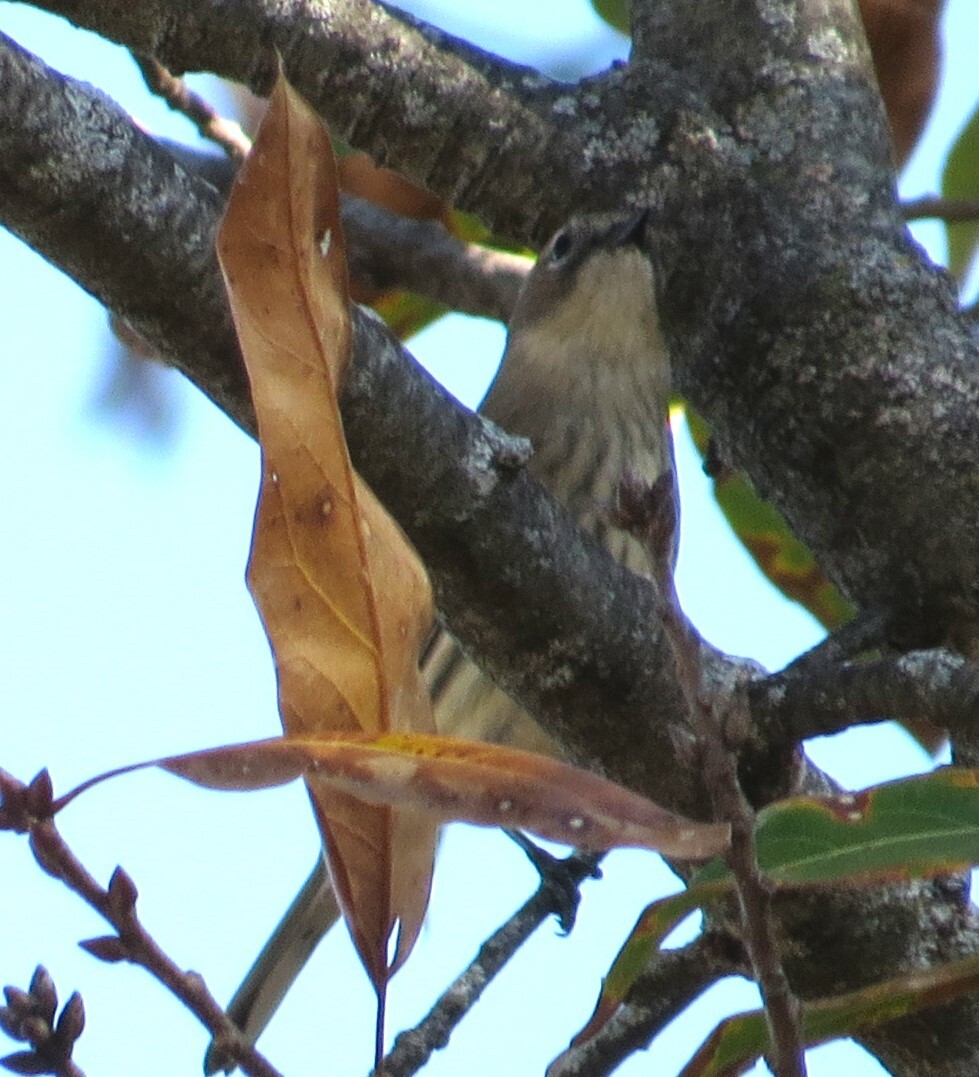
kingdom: Animalia
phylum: Chordata
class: Aves
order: Passeriformes
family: Parulidae
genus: Setophaga
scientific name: Setophaga coronata
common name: Myrtle warbler
